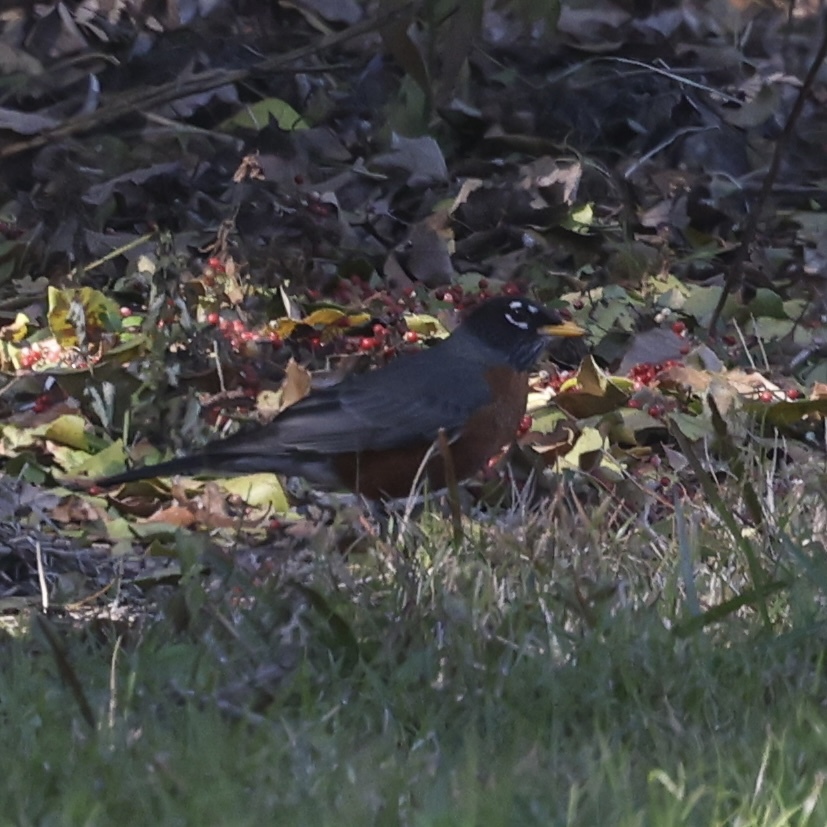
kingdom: Animalia
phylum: Chordata
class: Aves
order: Passeriformes
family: Turdidae
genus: Turdus
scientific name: Turdus migratorius
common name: American robin
